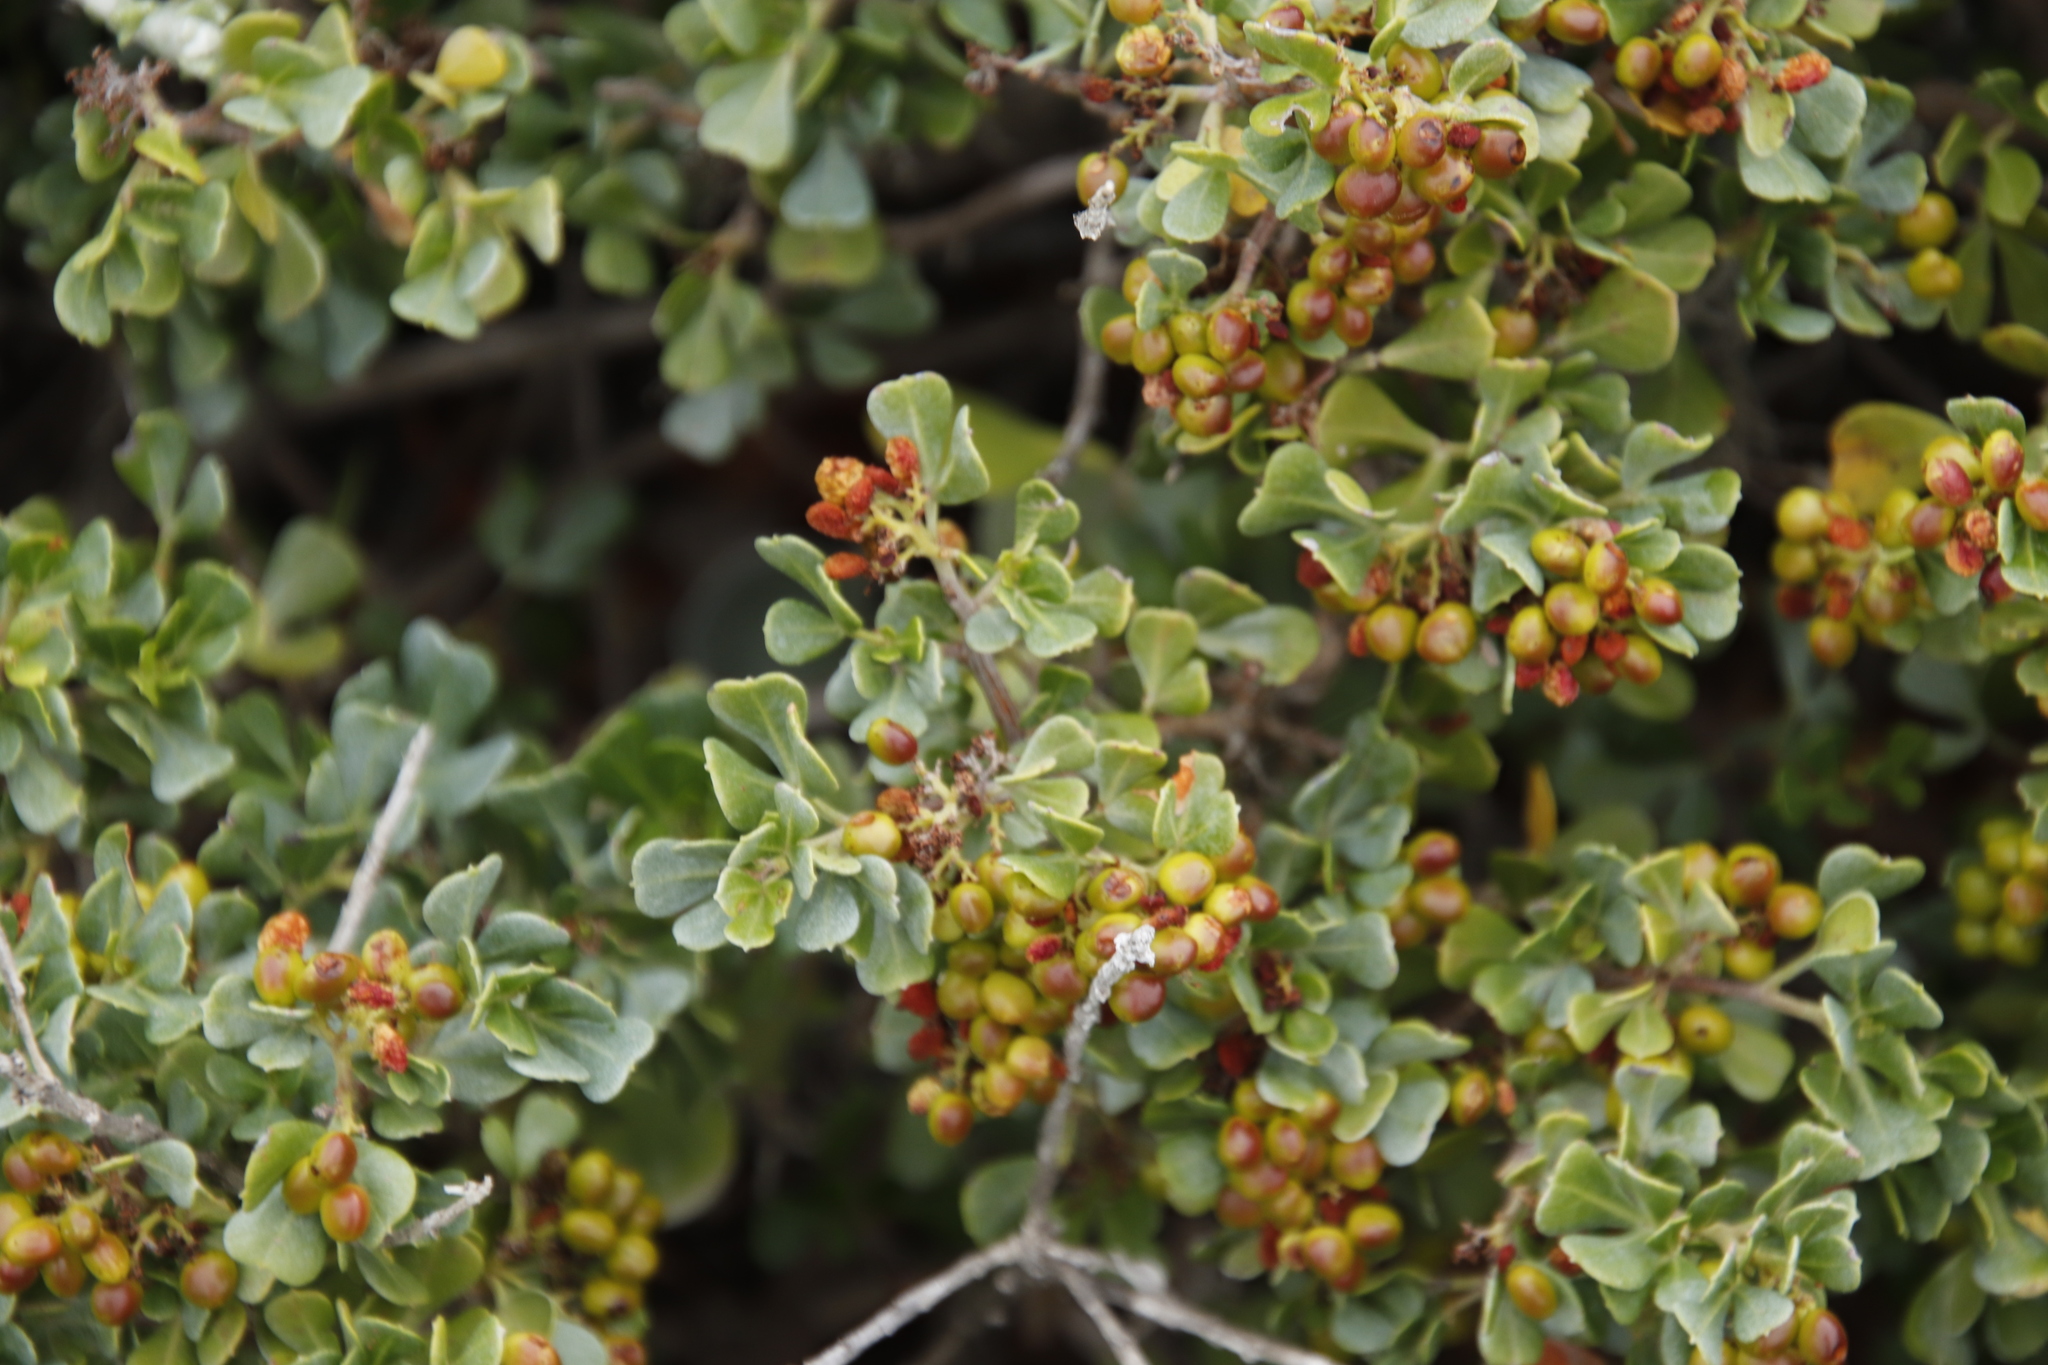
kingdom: Plantae
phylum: Tracheophyta
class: Magnoliopsida
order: Sapindales
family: Anacardiaceae
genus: Searsia
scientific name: Searsia glauca
